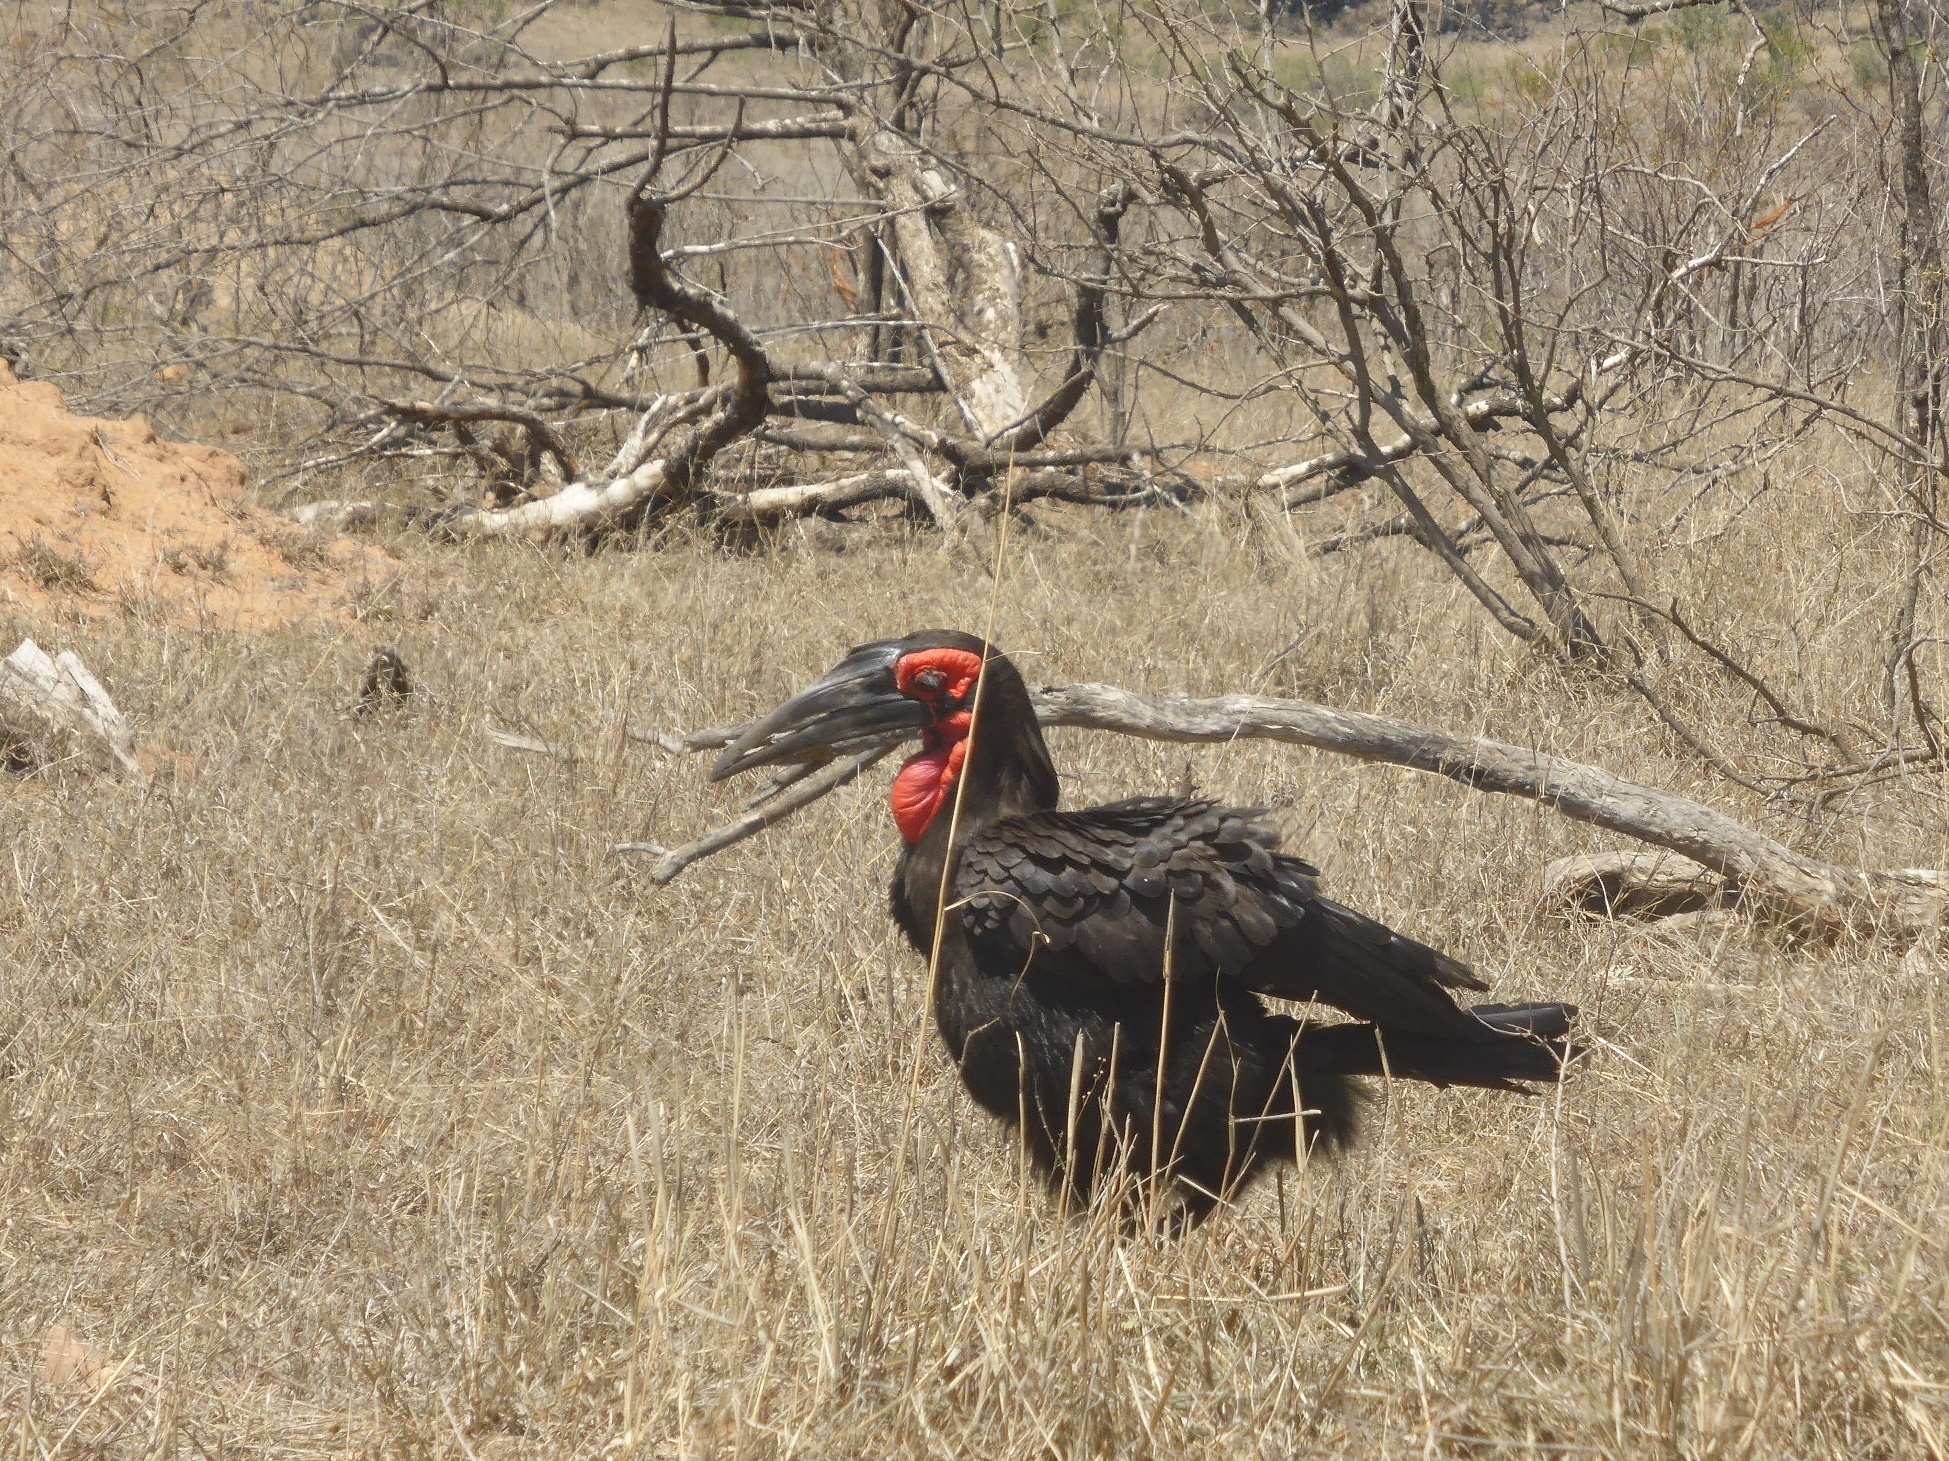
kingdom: Animalia
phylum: Chordata
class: Aves
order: Bucerotiformes
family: Bucorvidae
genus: Bucorvus
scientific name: Bucorvus leadbeateri
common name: Southern ground-hornbill
